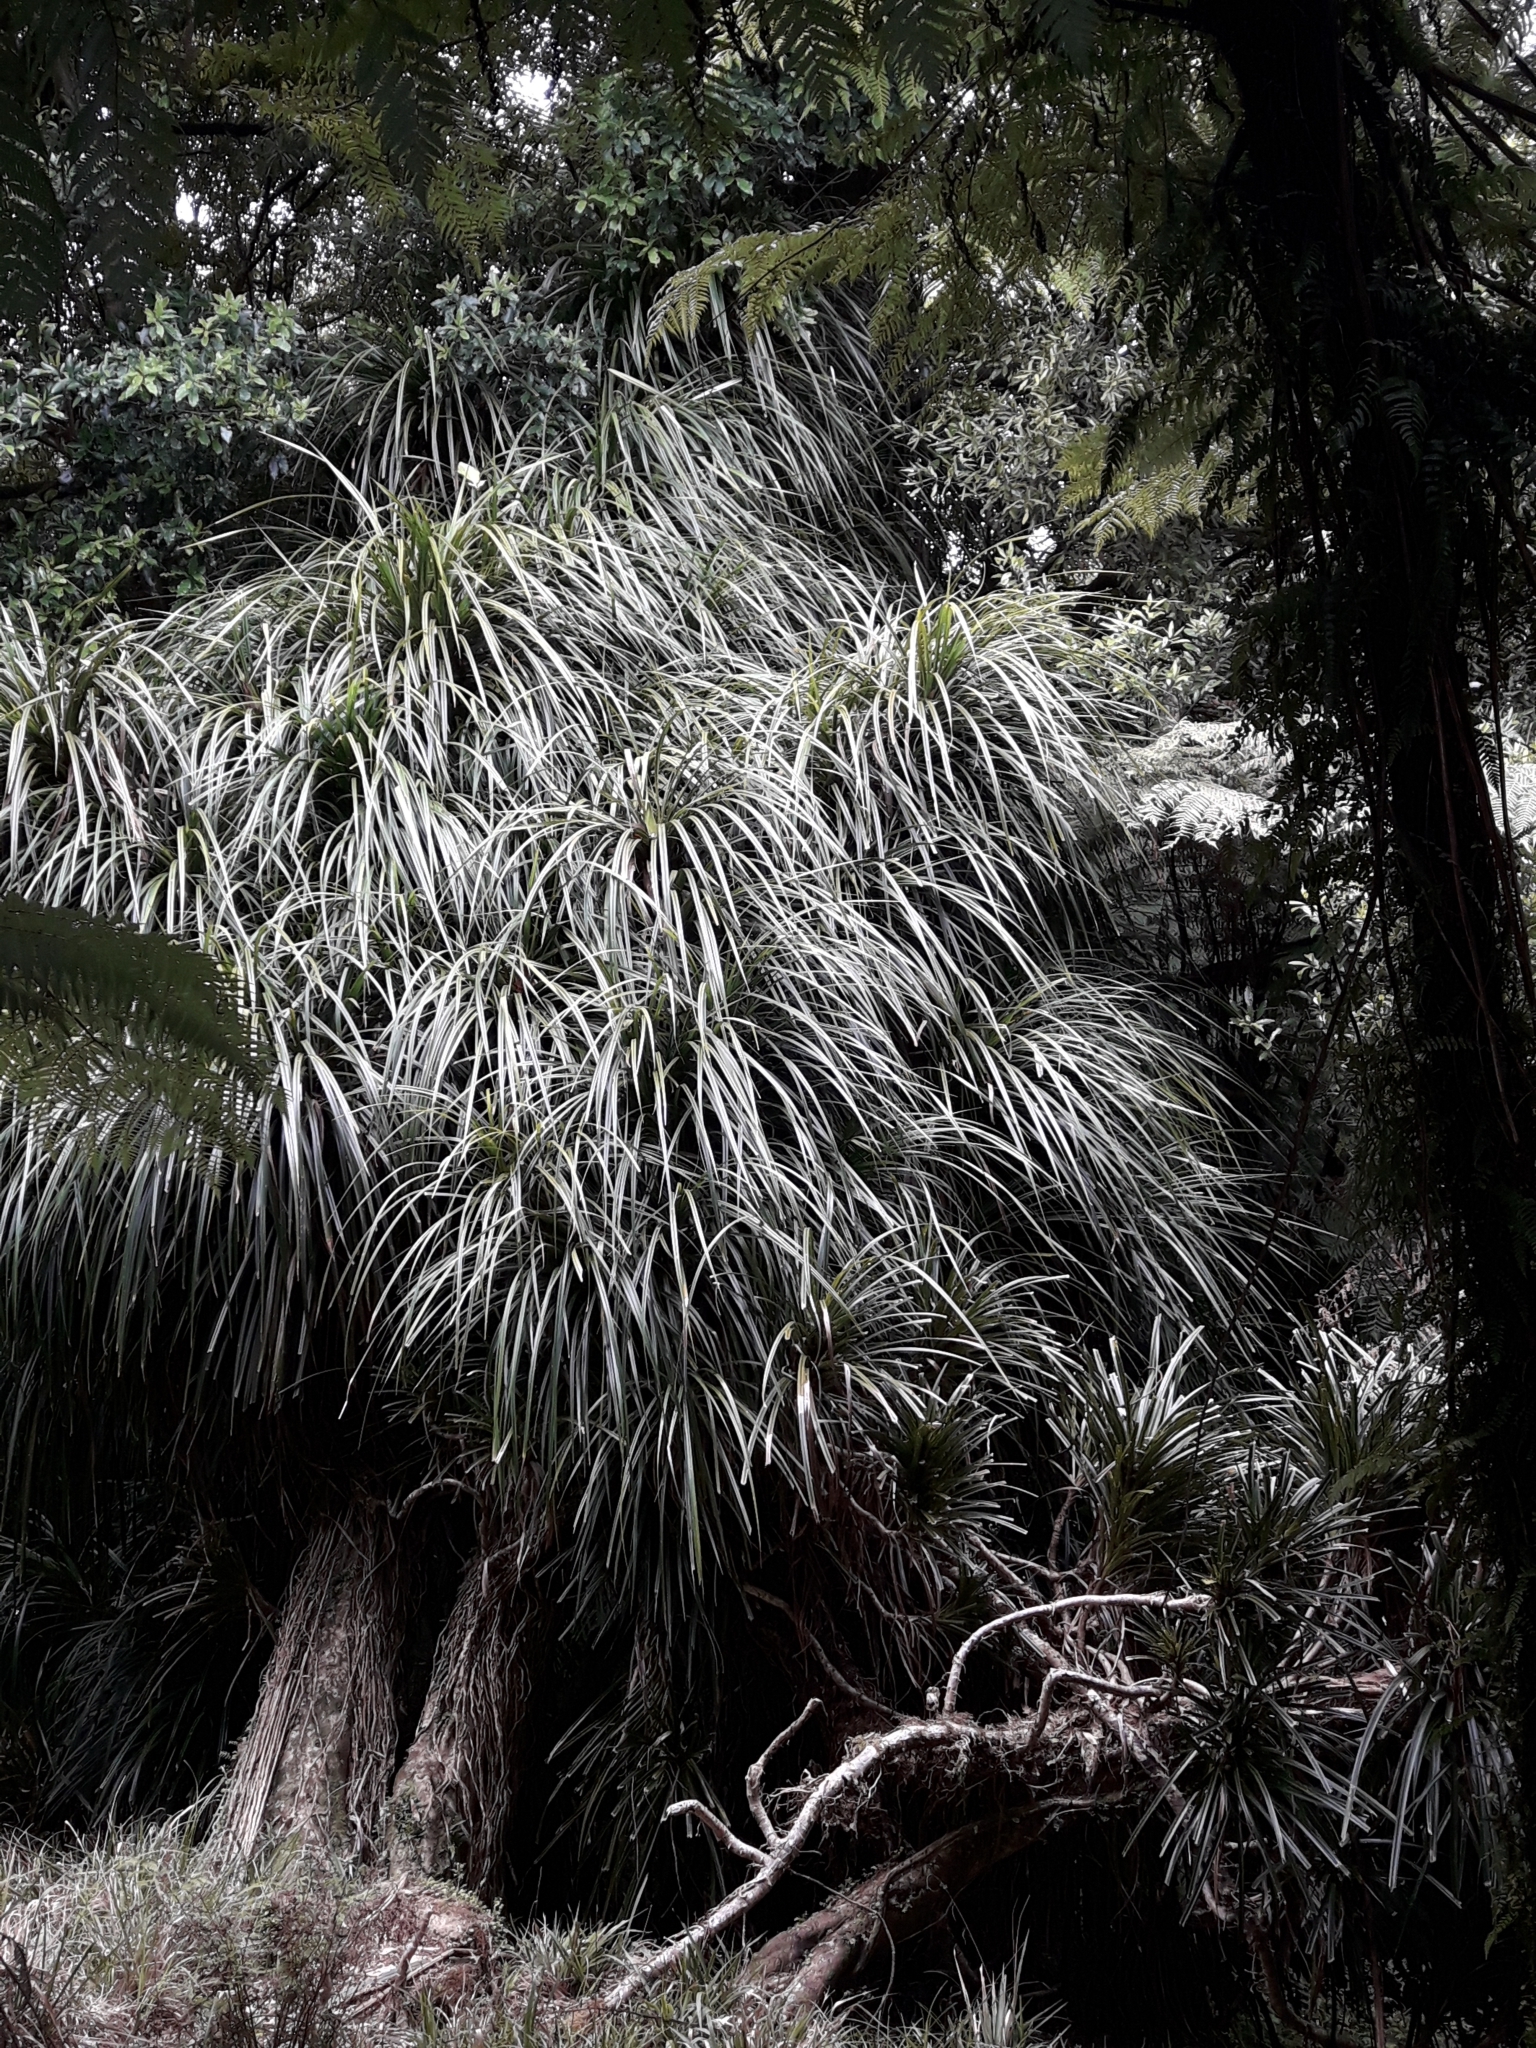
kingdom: Plantae
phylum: Tracheophyta
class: Liliopsida
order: Pandanales
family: Pandanaceae
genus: Freycinetia
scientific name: Freycinetia banksii
